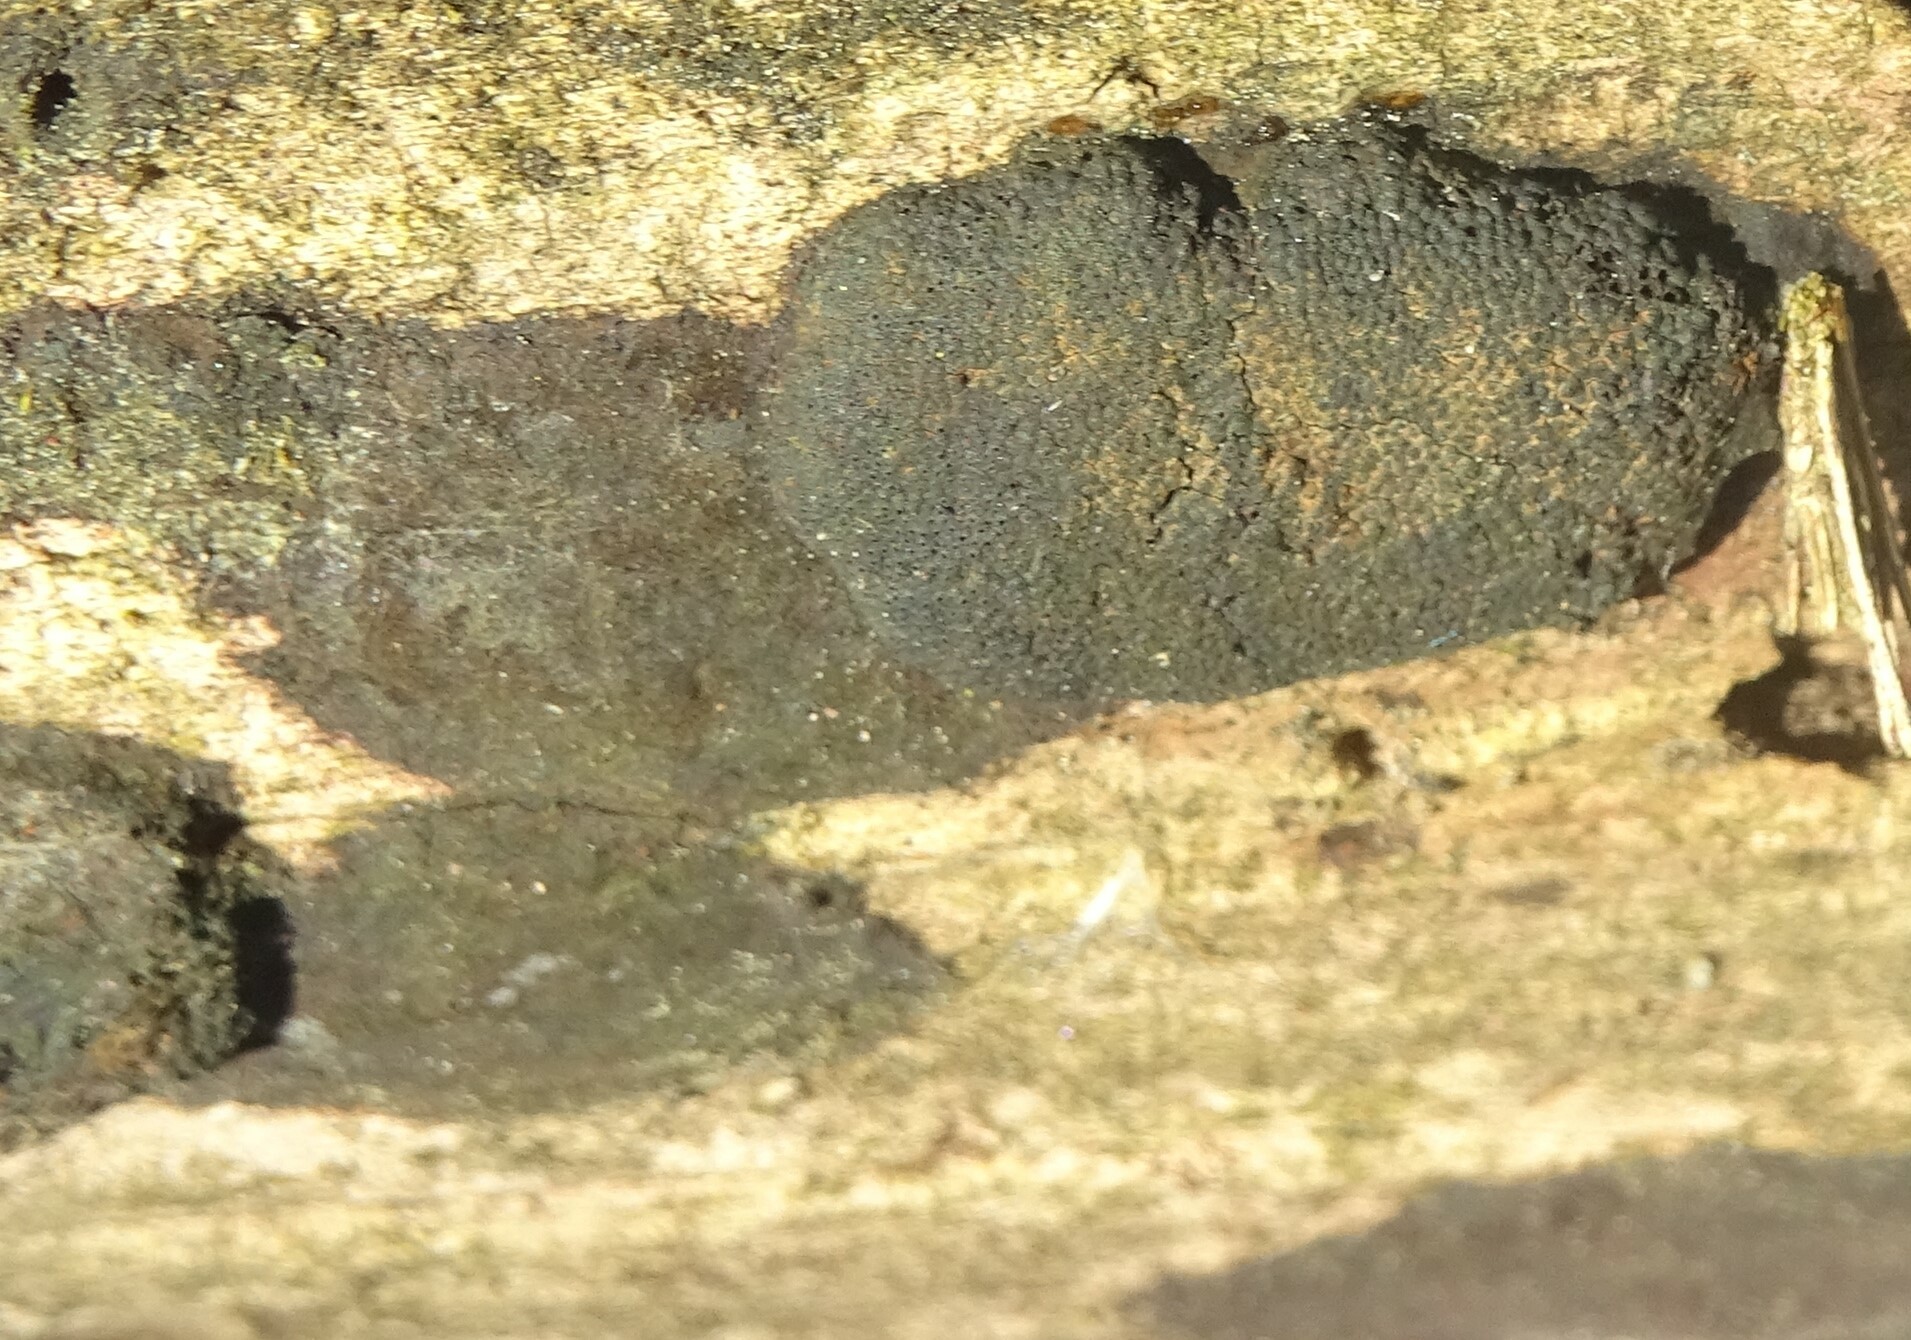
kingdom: Fungi
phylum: Ascomycota
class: Sordariomycetes
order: Xylariales
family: Diatrypaceae
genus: Diatrype
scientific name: Diatrype stigma
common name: Common tarcrust
